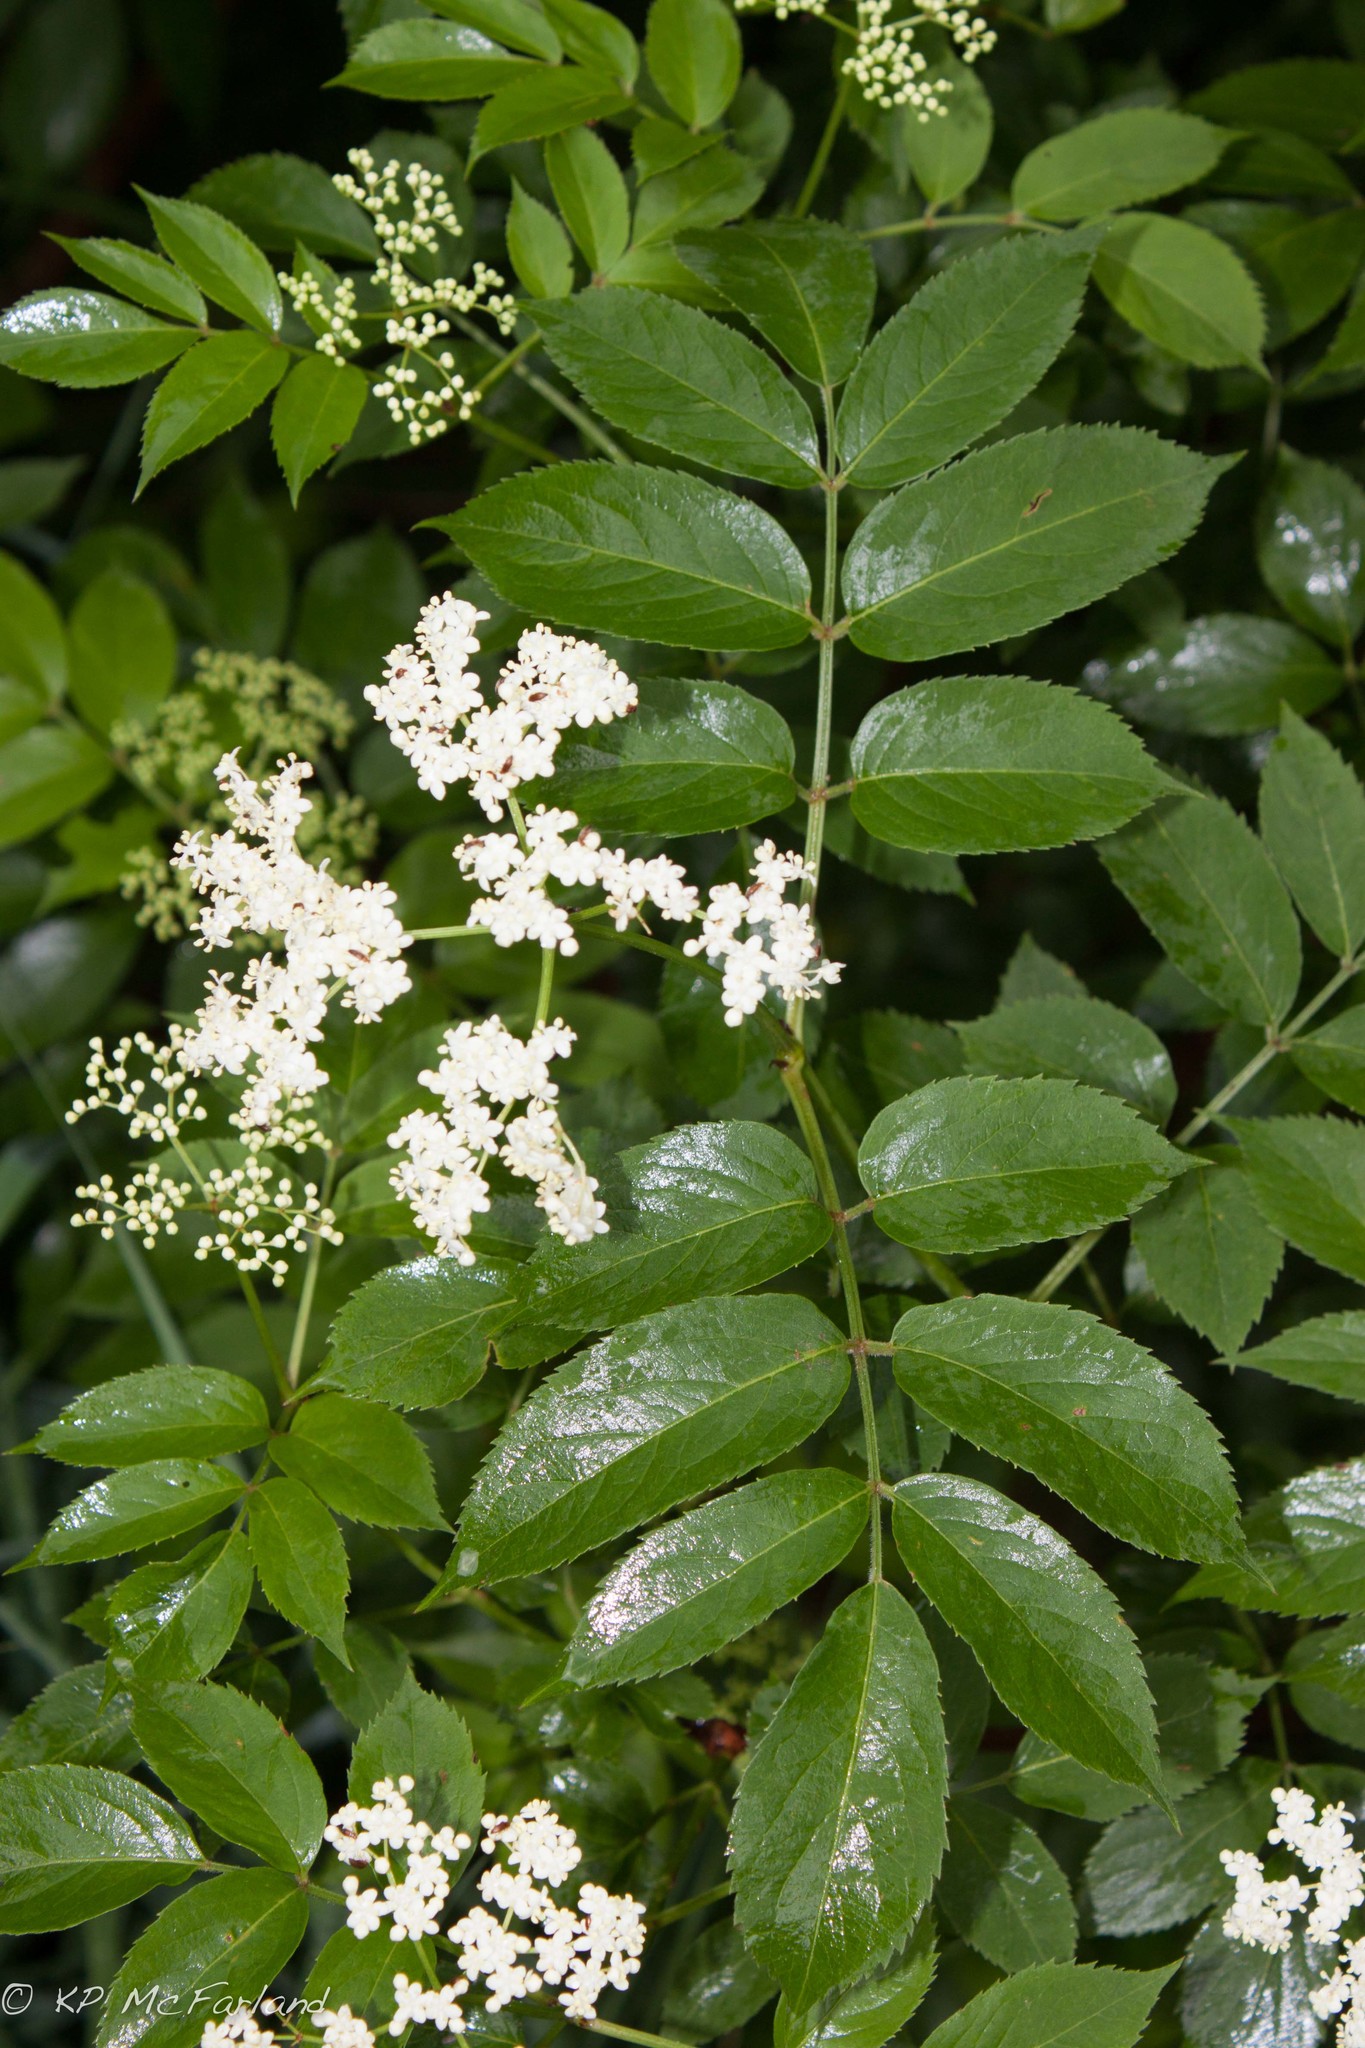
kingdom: Plantae
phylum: Tracheophyta
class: Magnoliopsida
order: Dipsacales
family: Viburnaceae
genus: Sambucus
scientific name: Sambucus canadensis
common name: American elder
